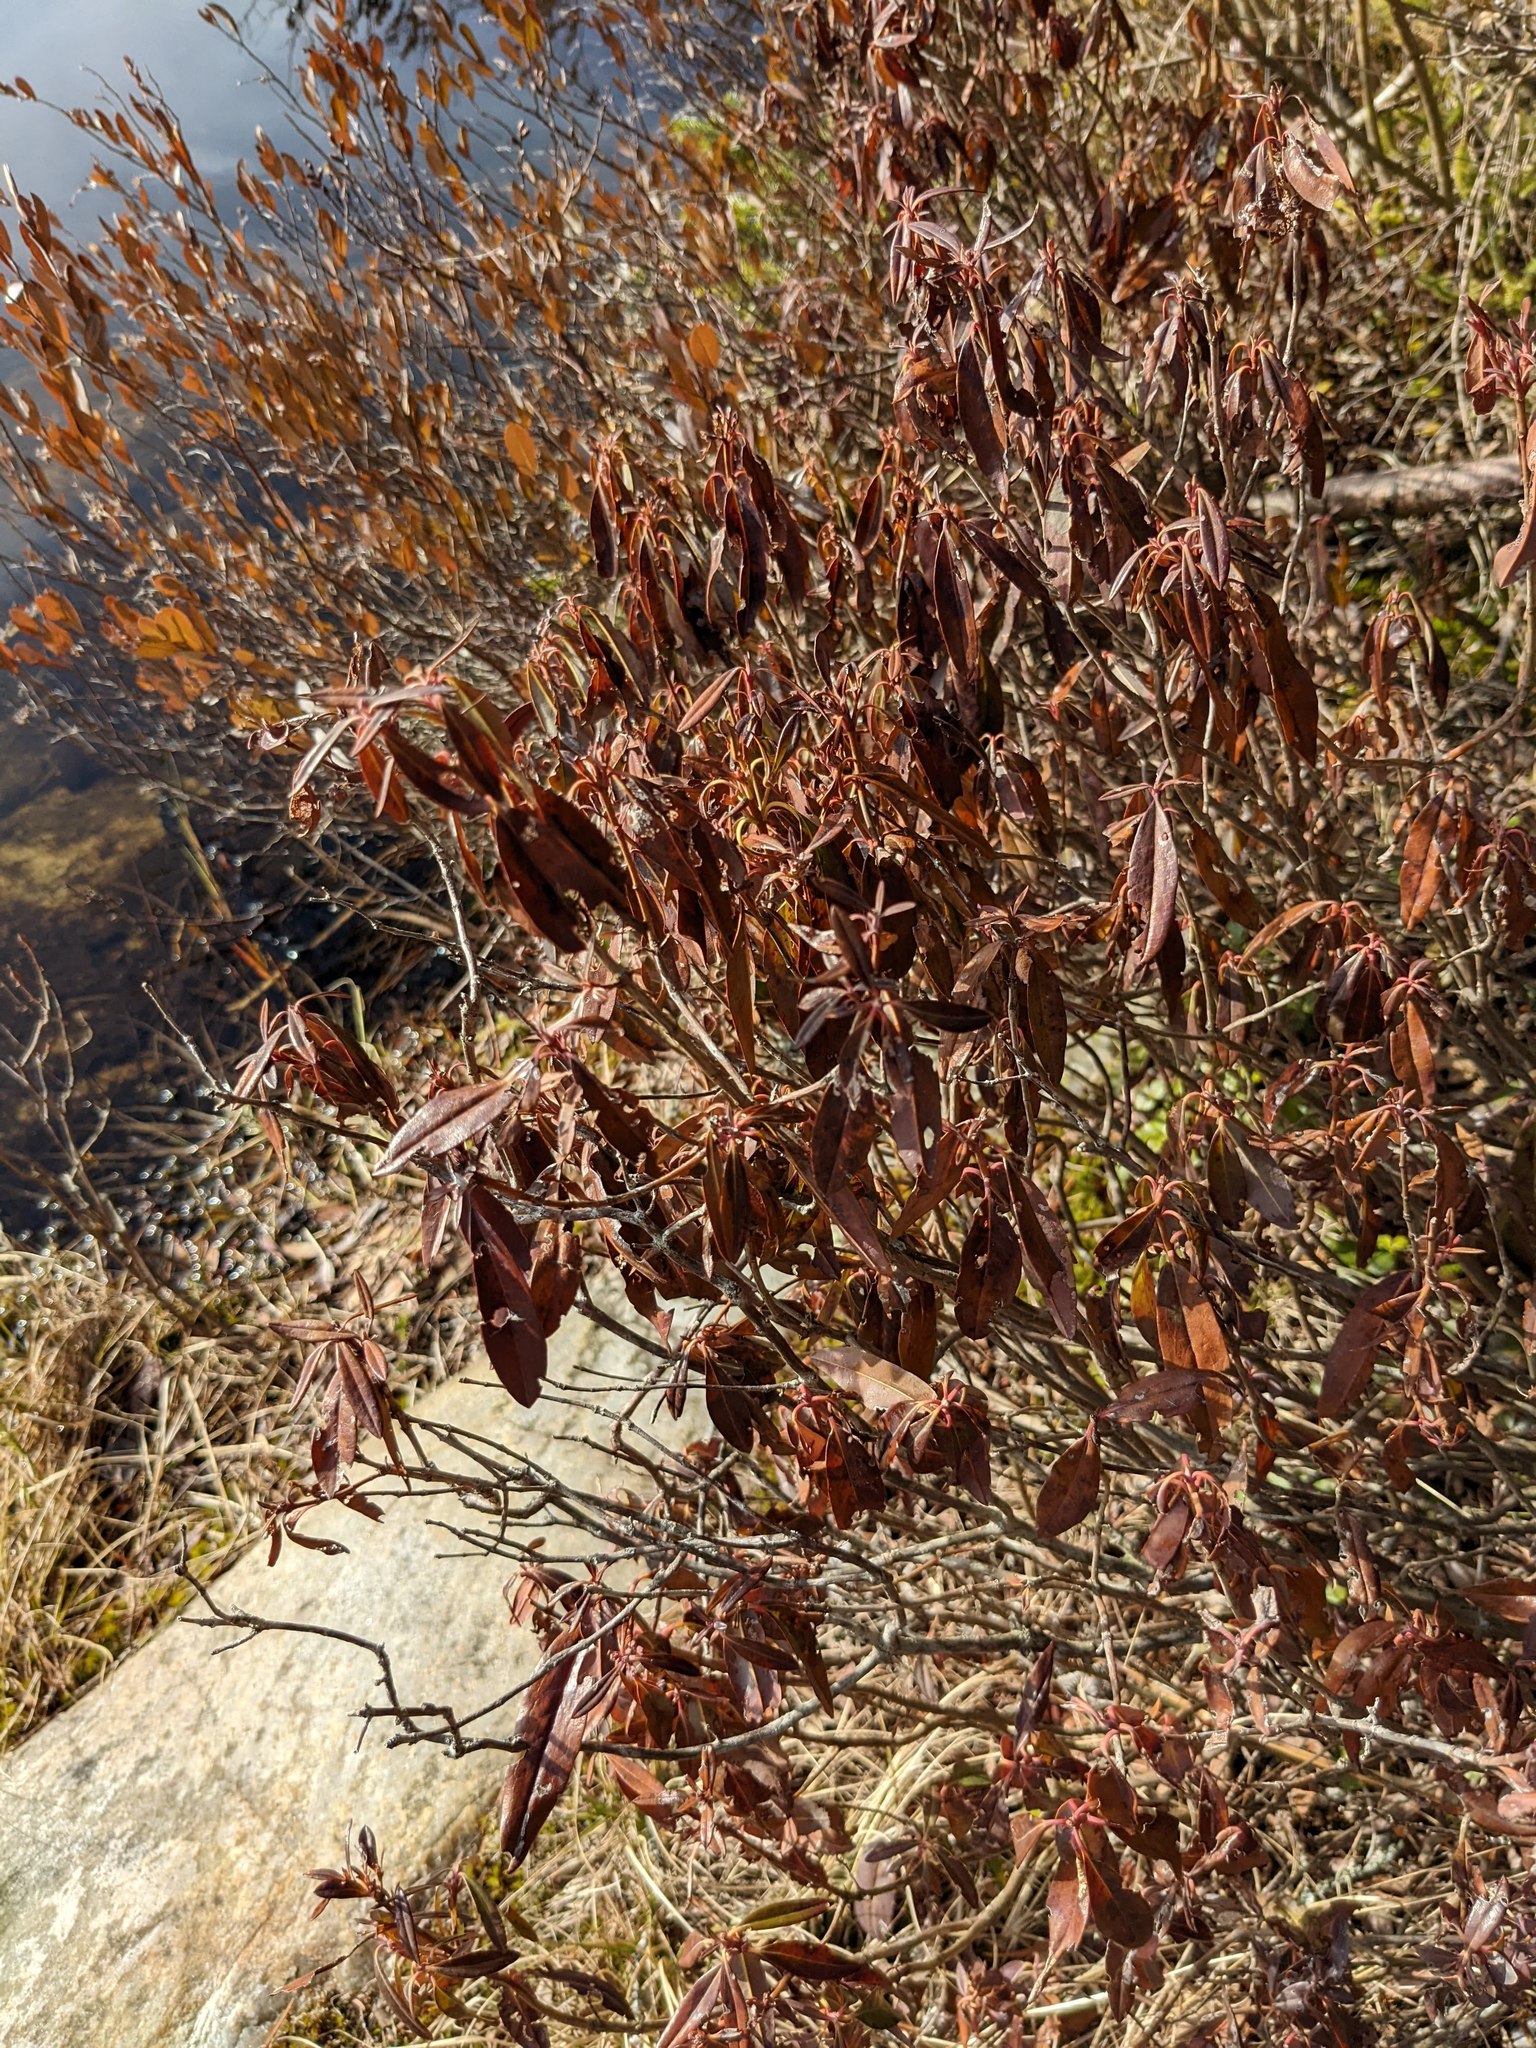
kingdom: Plantae
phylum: Tracheophyta
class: Magnoliopsida
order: Ericales
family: Ericaceae
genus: Chamaedaphne
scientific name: Chamaedaphne calyculata
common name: Leatherleaf
